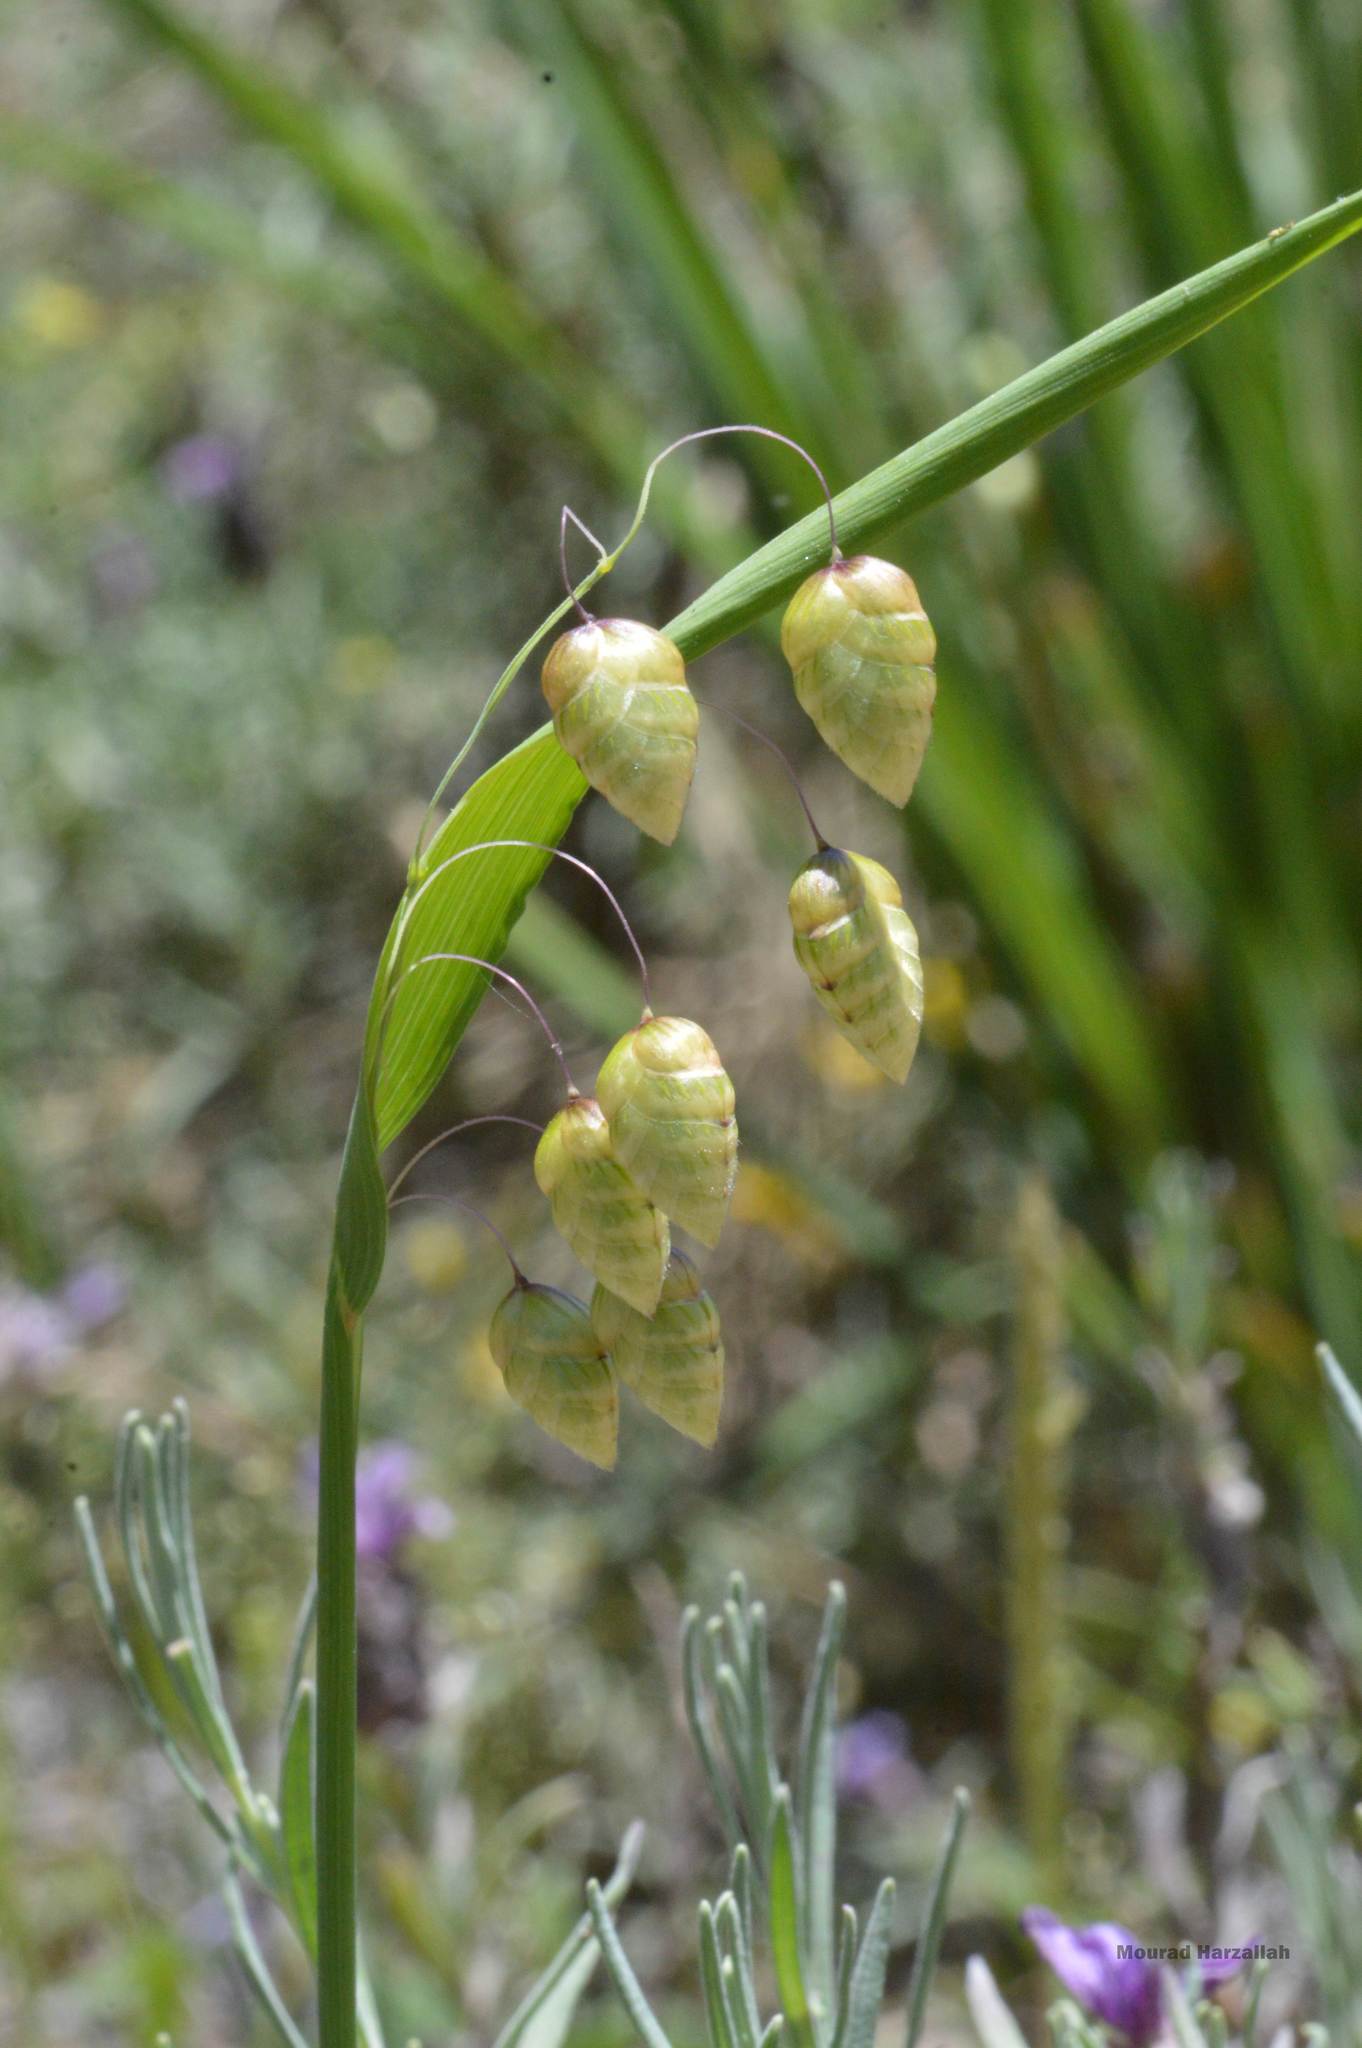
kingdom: Plantae
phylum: Tracheophyta
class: Liliopsida
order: Poales
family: Poaceae
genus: Briza
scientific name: Briza maxima
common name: Big quakinggrass
